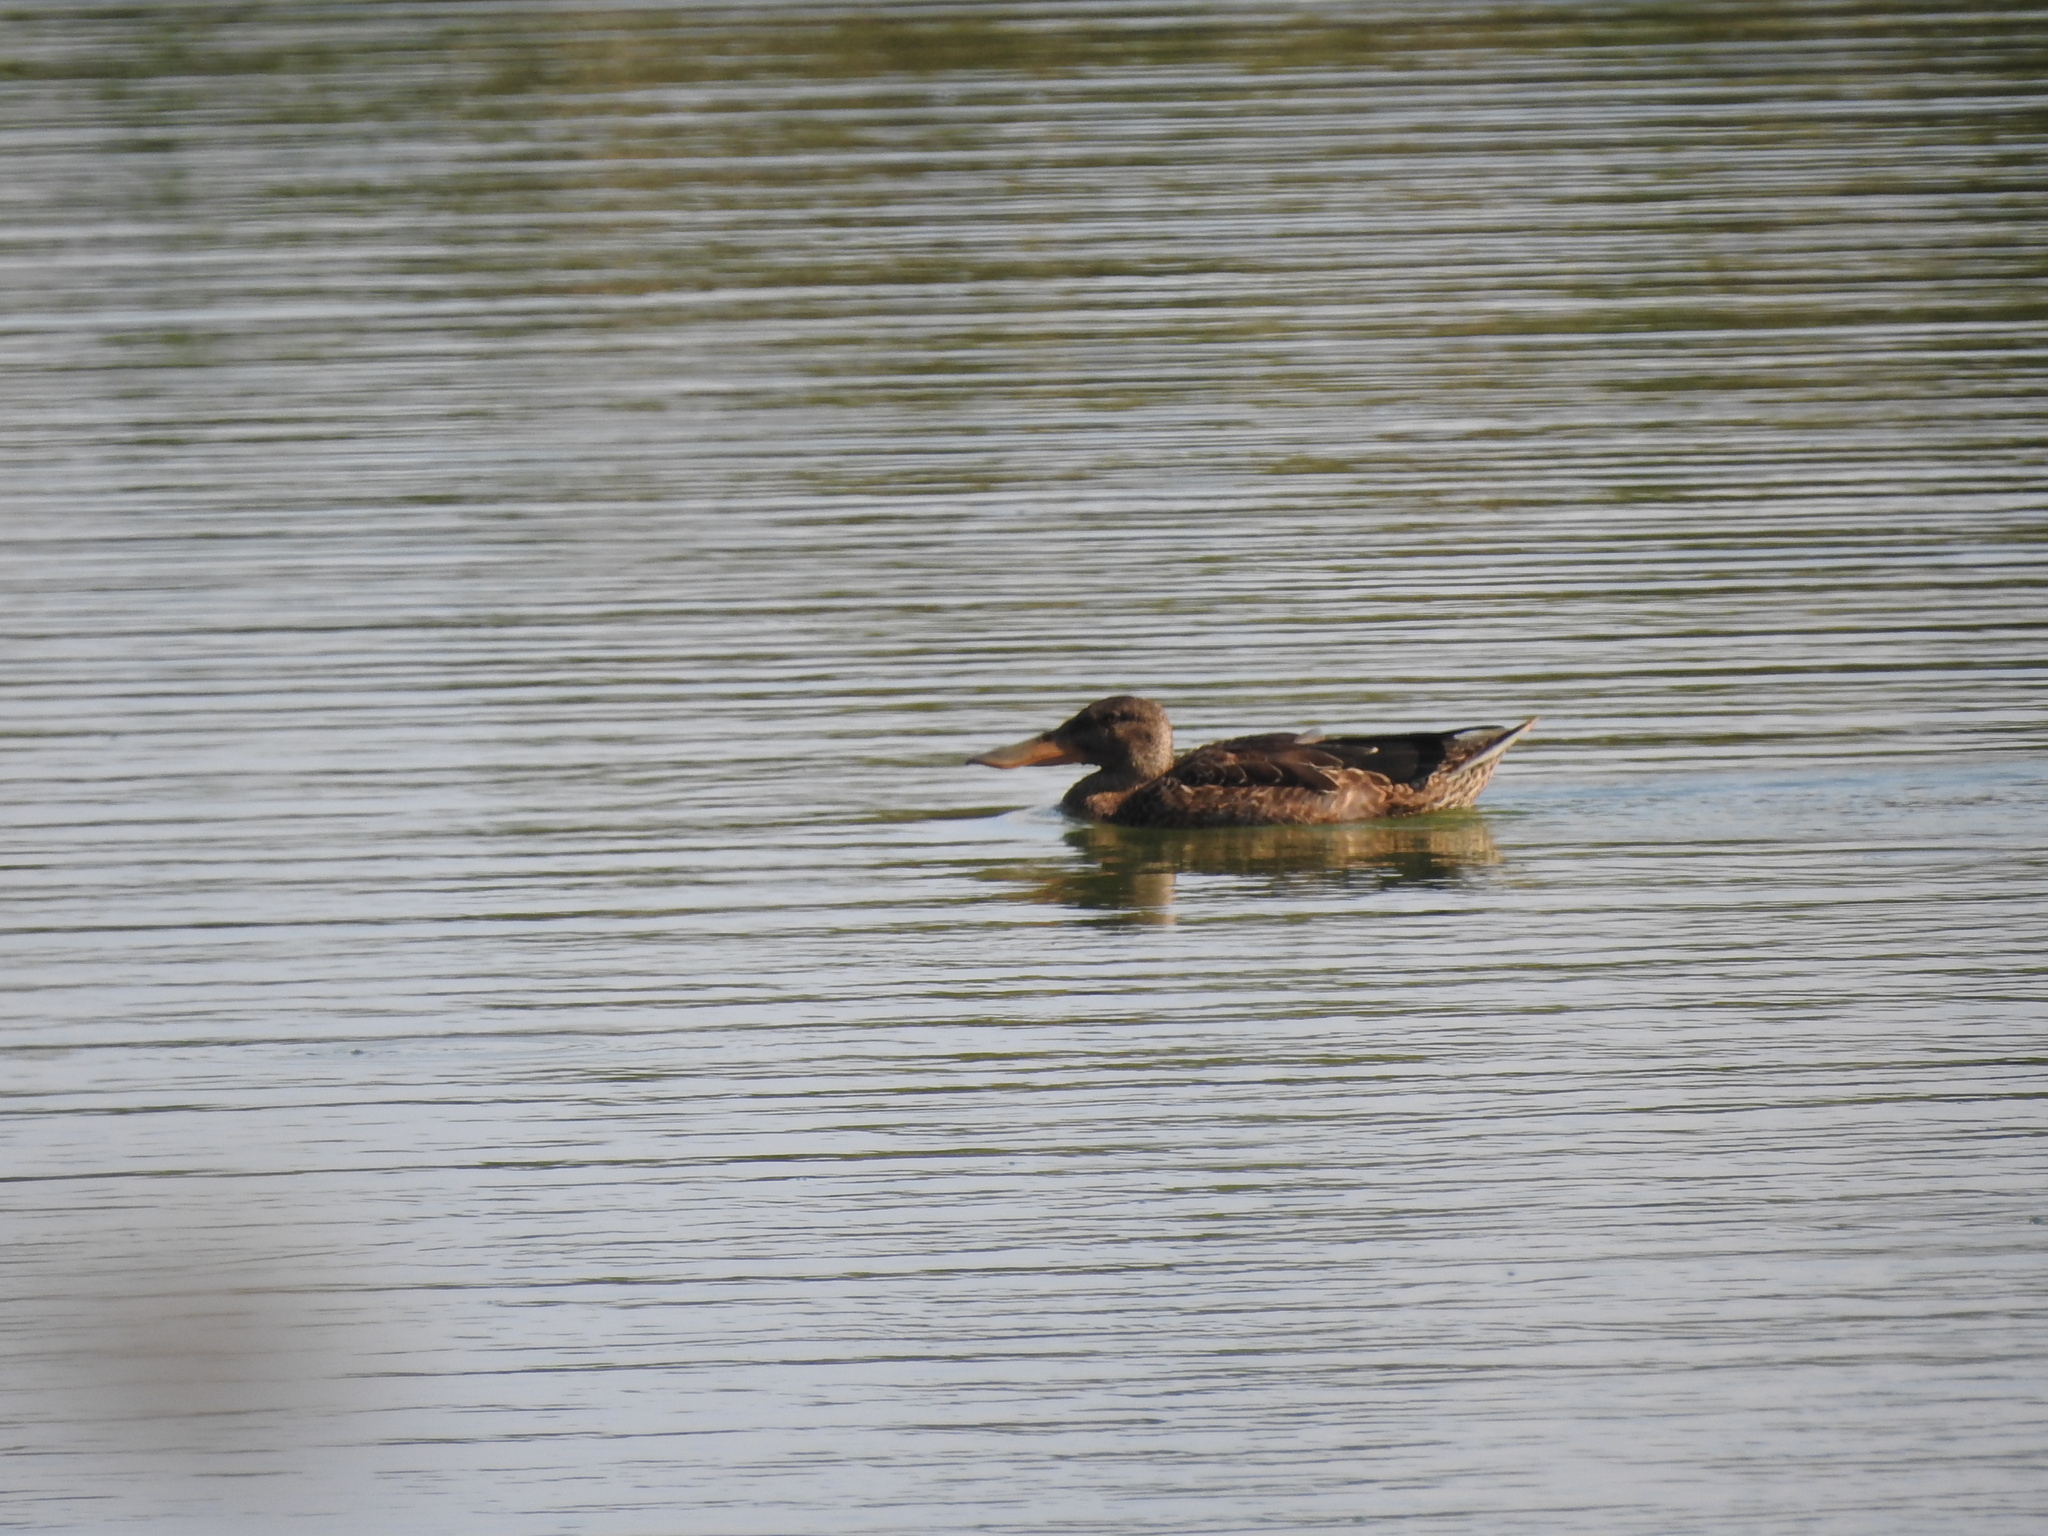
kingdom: Animalia
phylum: Chordata
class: Aves
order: Anseriformes
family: Anatidae
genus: Spatula
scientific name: Spatula clypeata
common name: Northern shoveler
